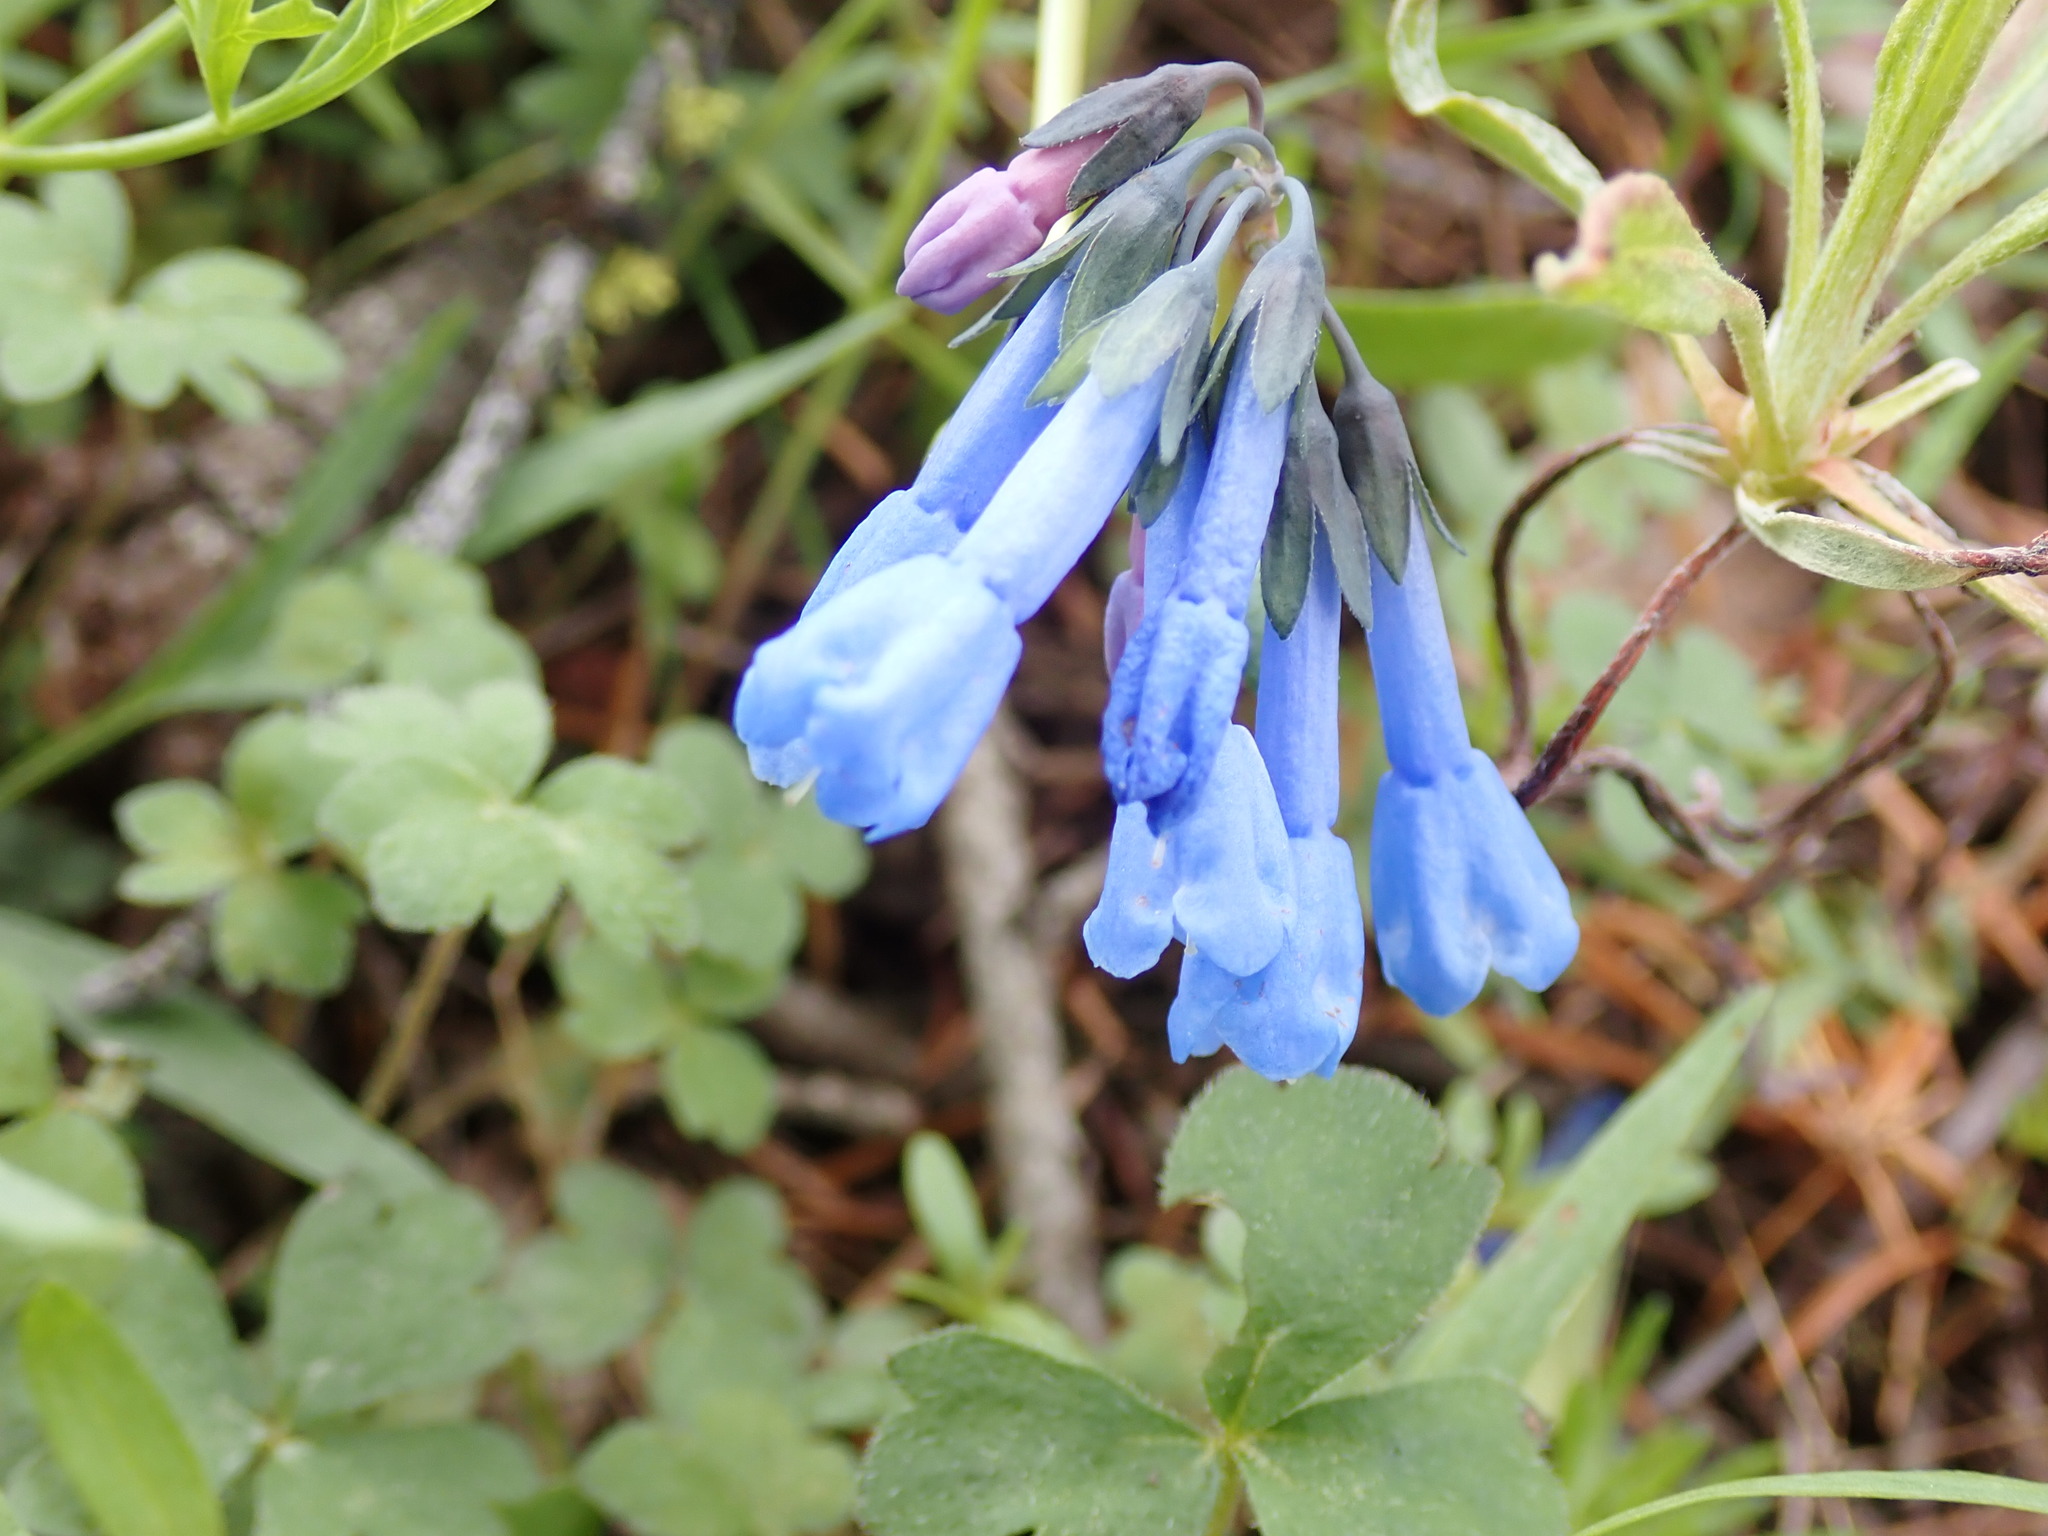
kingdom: Plantae
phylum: Tracheophyta
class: Magnoliopsida
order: Boraginales
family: Boraginaceae
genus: Mertensia
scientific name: Mertensia longiflora
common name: Large-flowered bluebells
